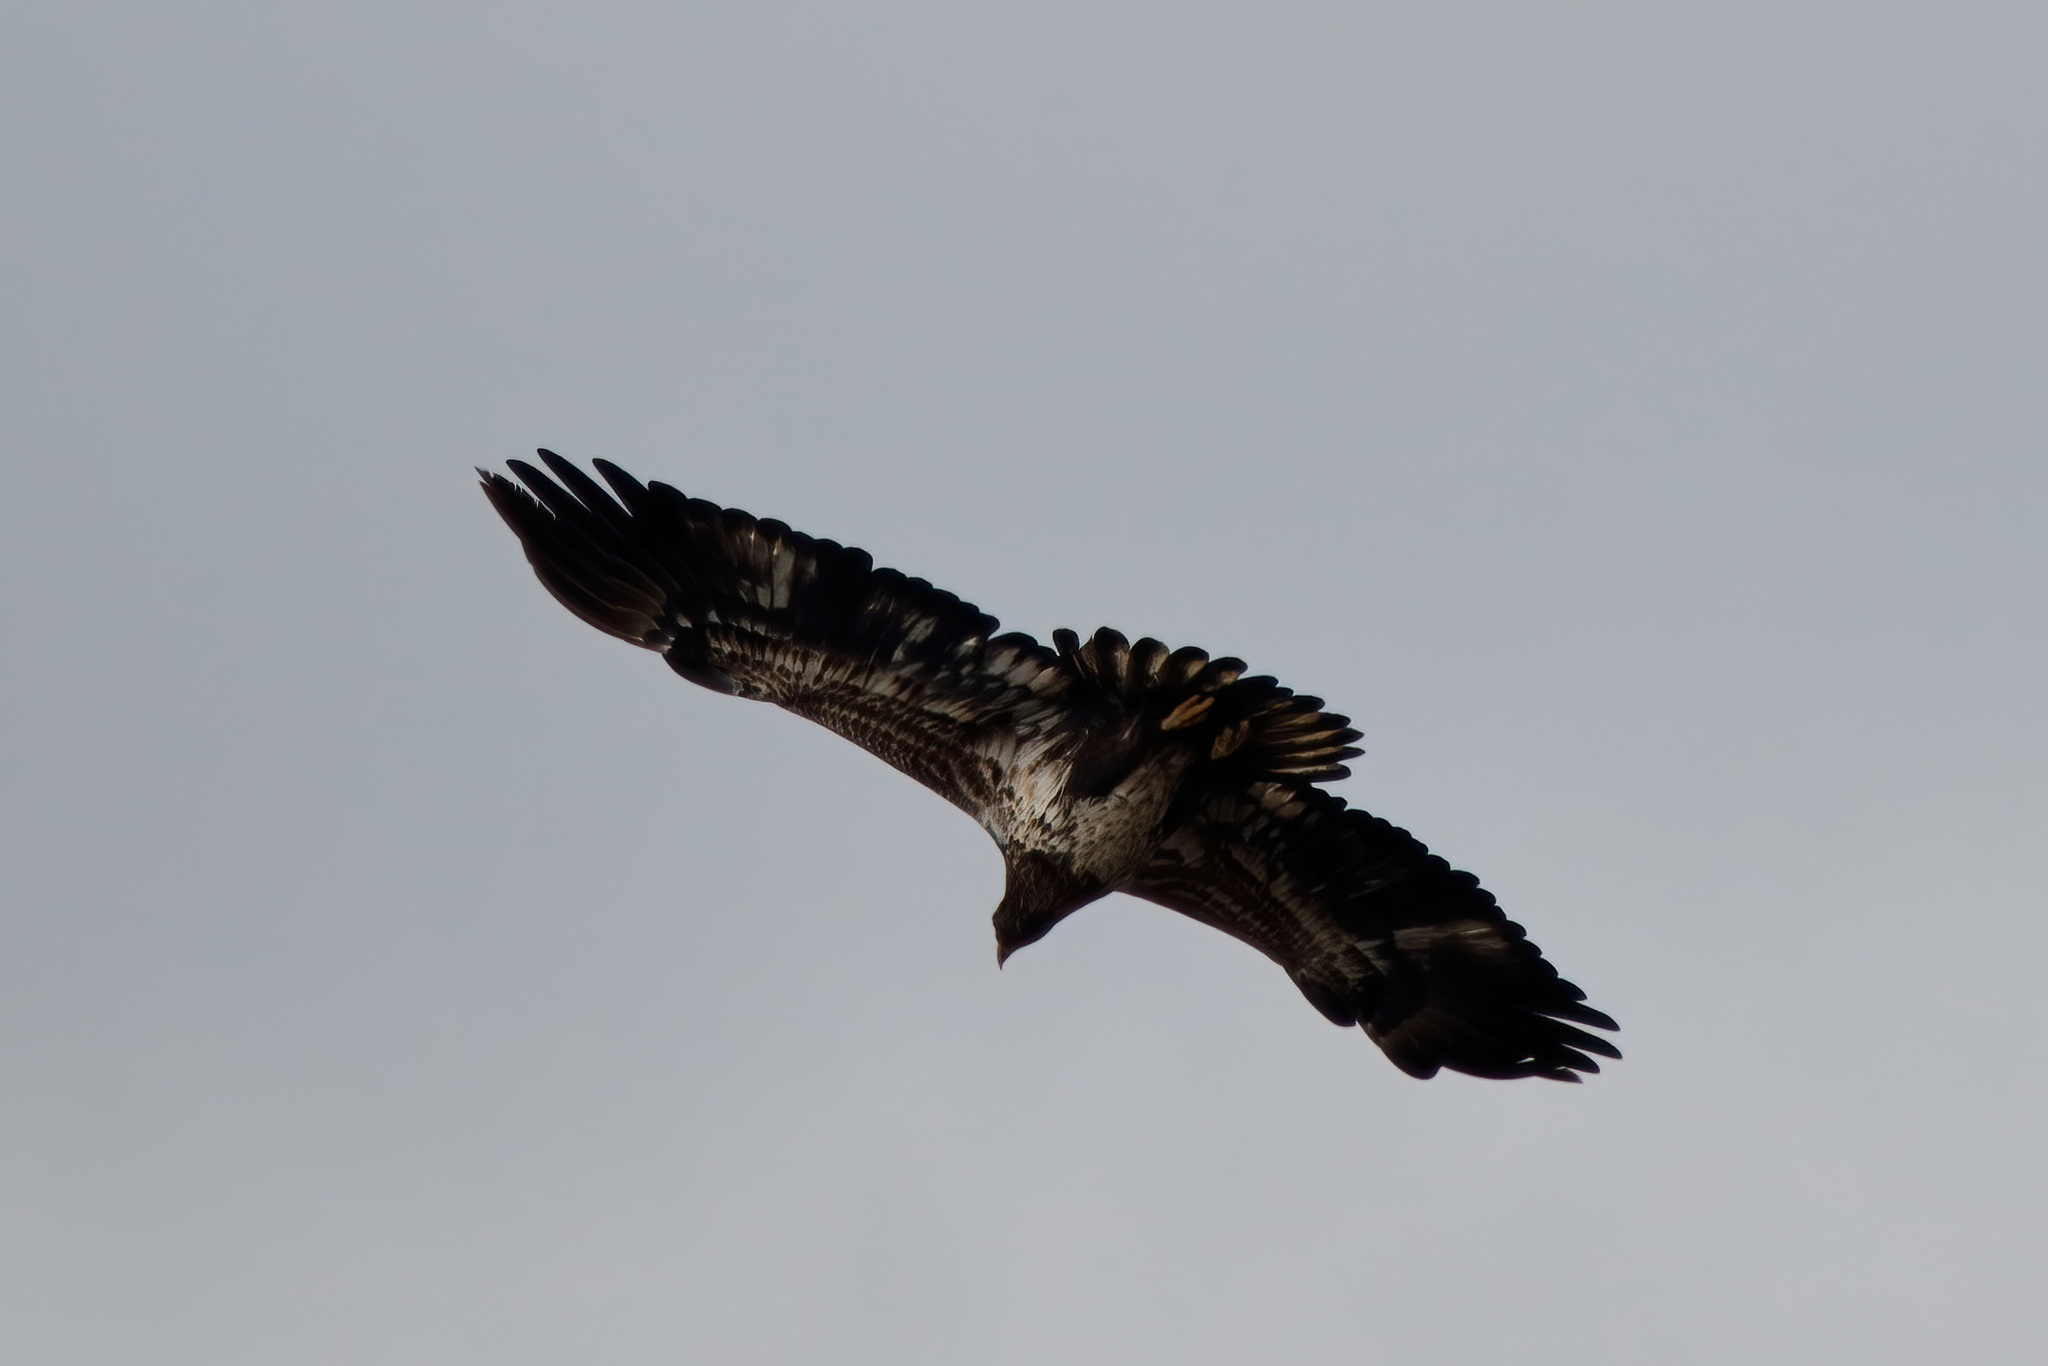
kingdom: Animalia
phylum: Chordata
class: Aves
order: Accipitriformes
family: Accipitridae
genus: Haliaeetus
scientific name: Haliaeetus leucocephalus
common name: Bald eagle
